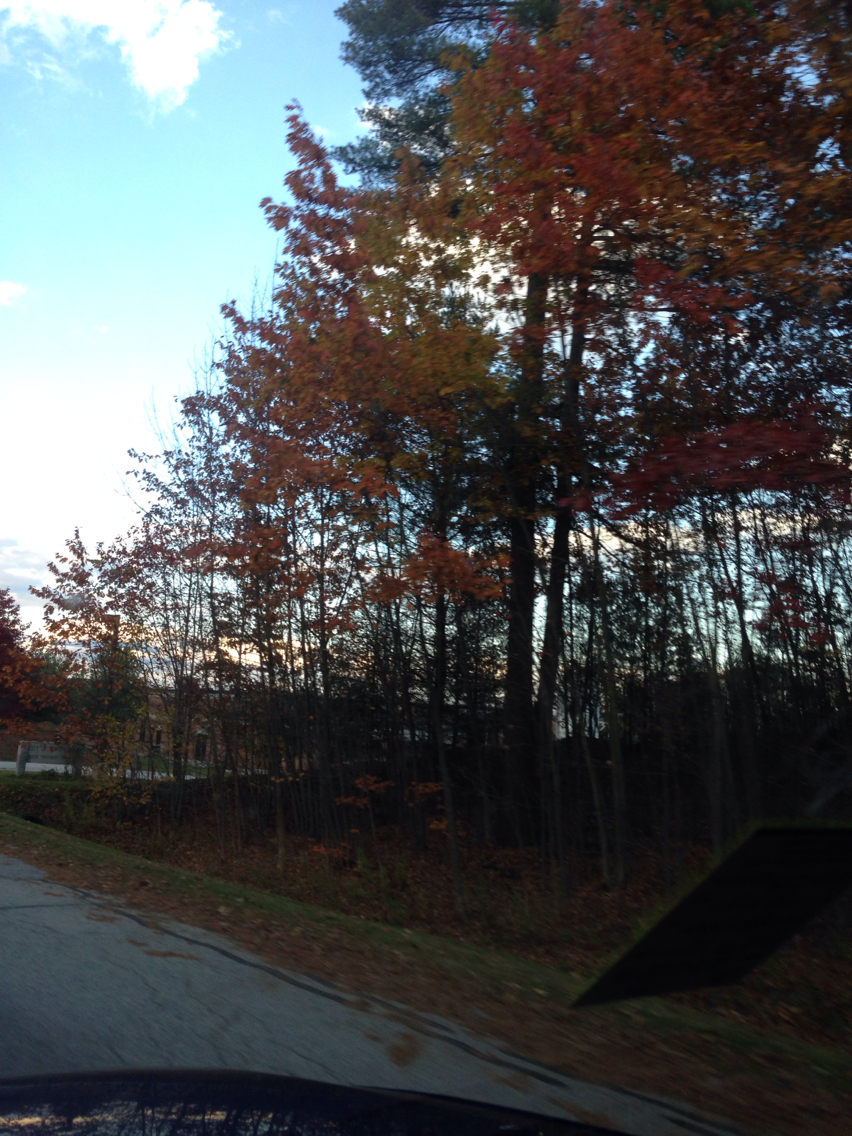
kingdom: Plantae
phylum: Tracheophyta
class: Magnoliopsida
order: Fagales
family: Fagaceae
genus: Quercus
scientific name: Quercus rubra
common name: Red oak
